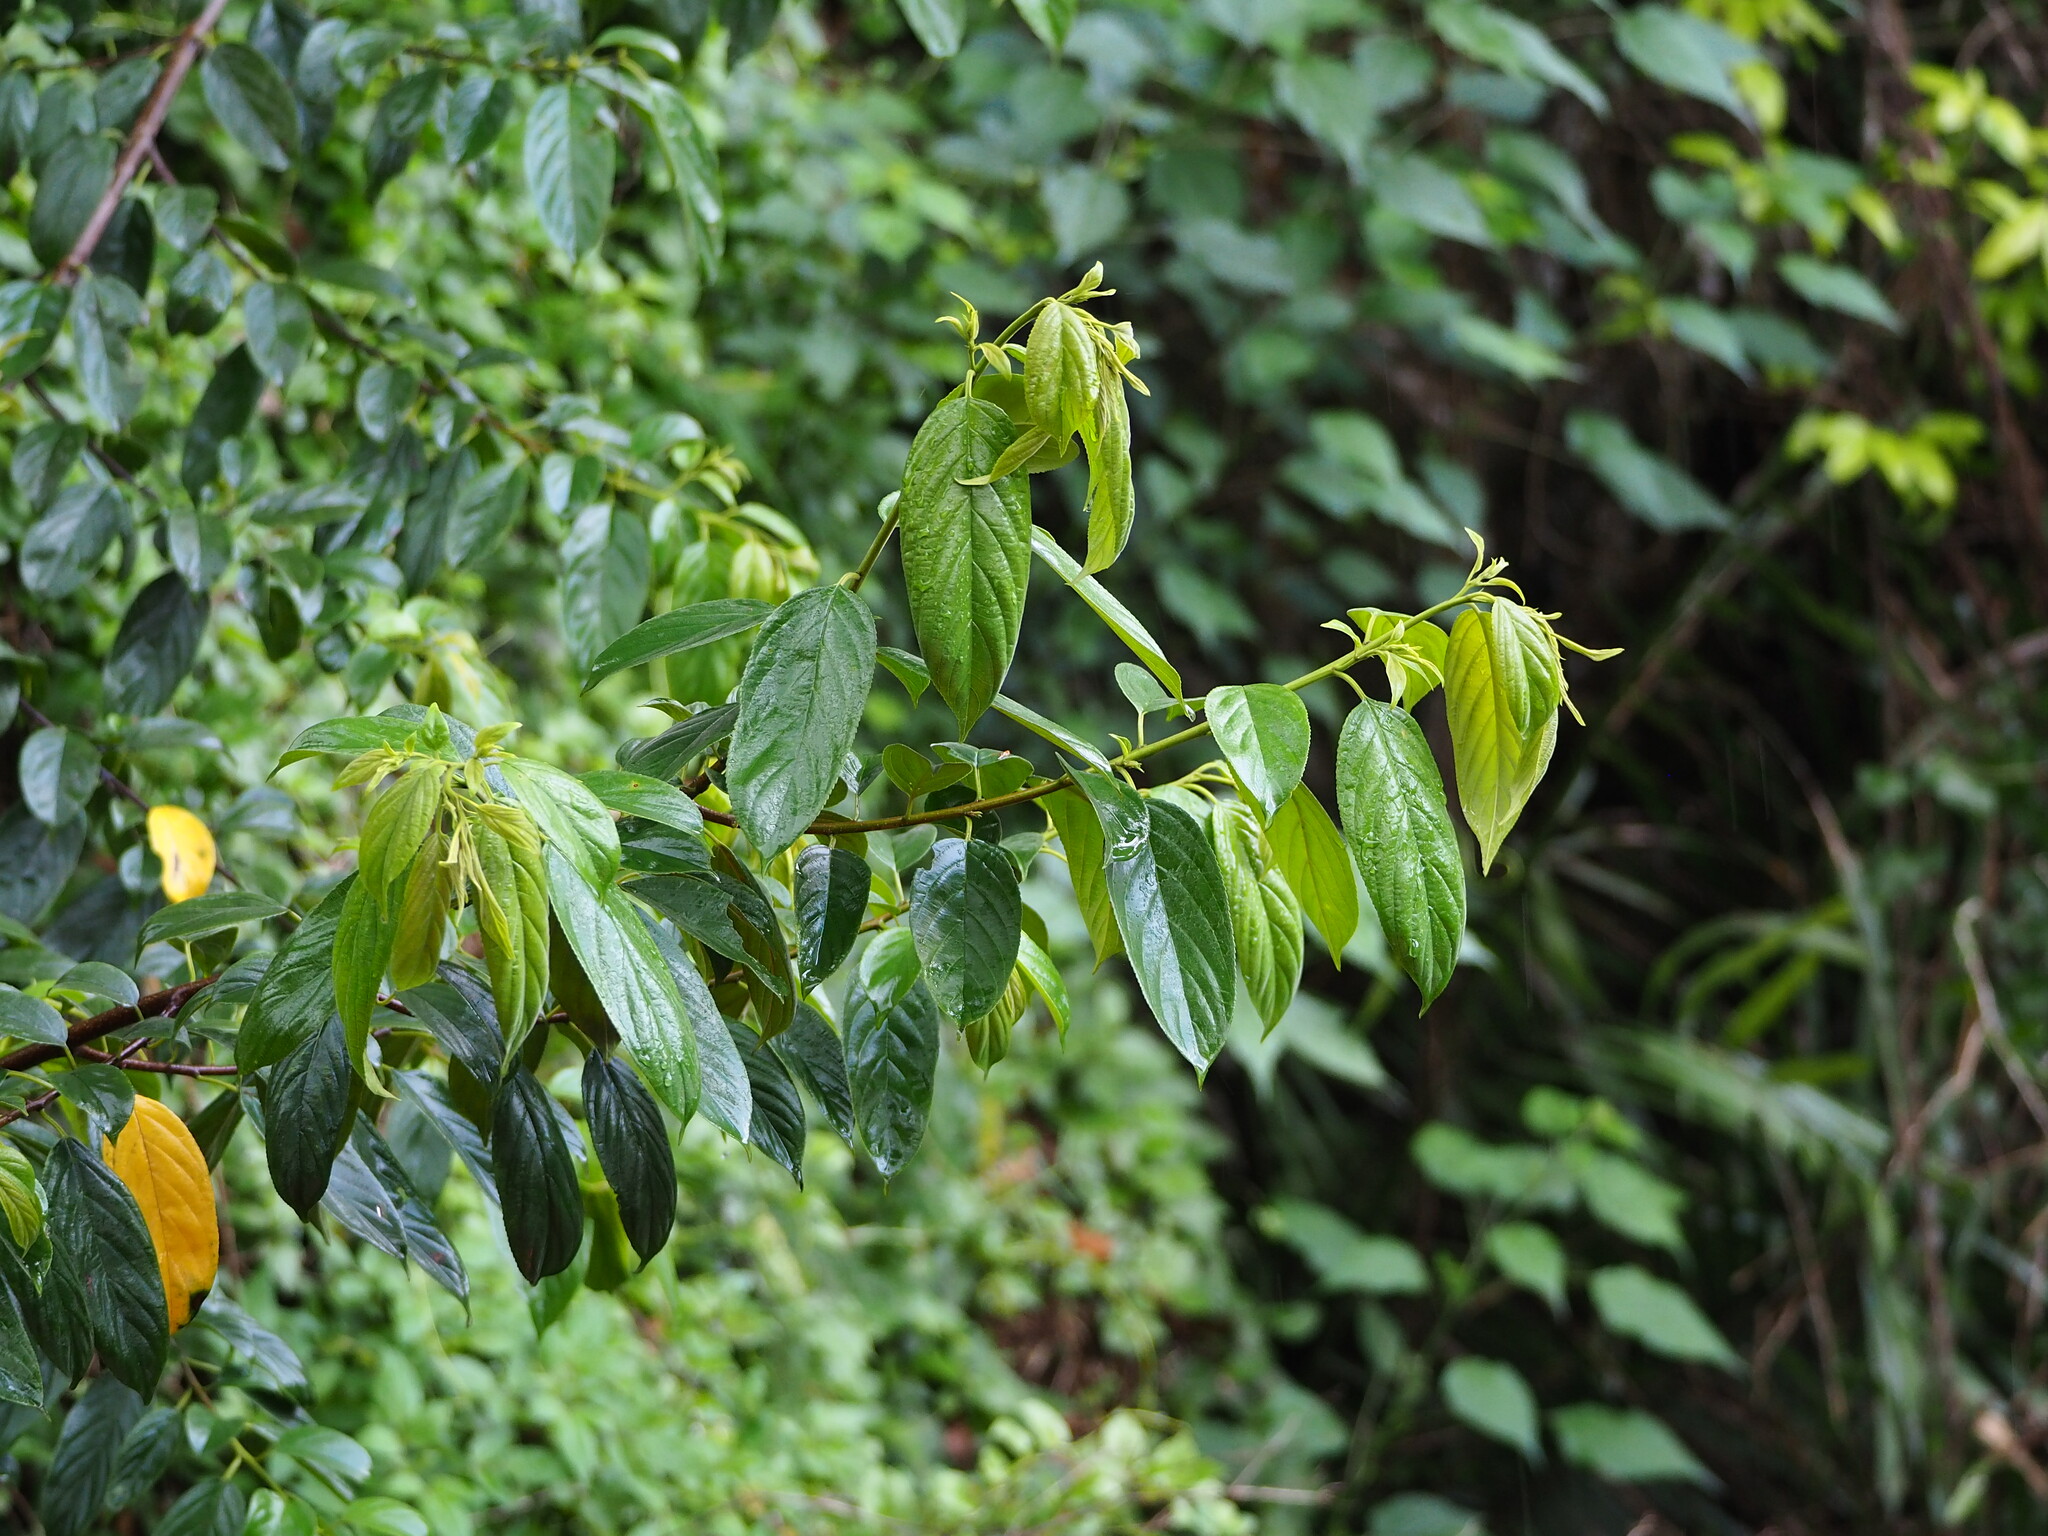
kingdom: Plantae
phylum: Tracheophyta
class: Magnoliopsida
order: Rosales
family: Rhamnaceae
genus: Rhamnus
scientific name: Rhamnus formosana
